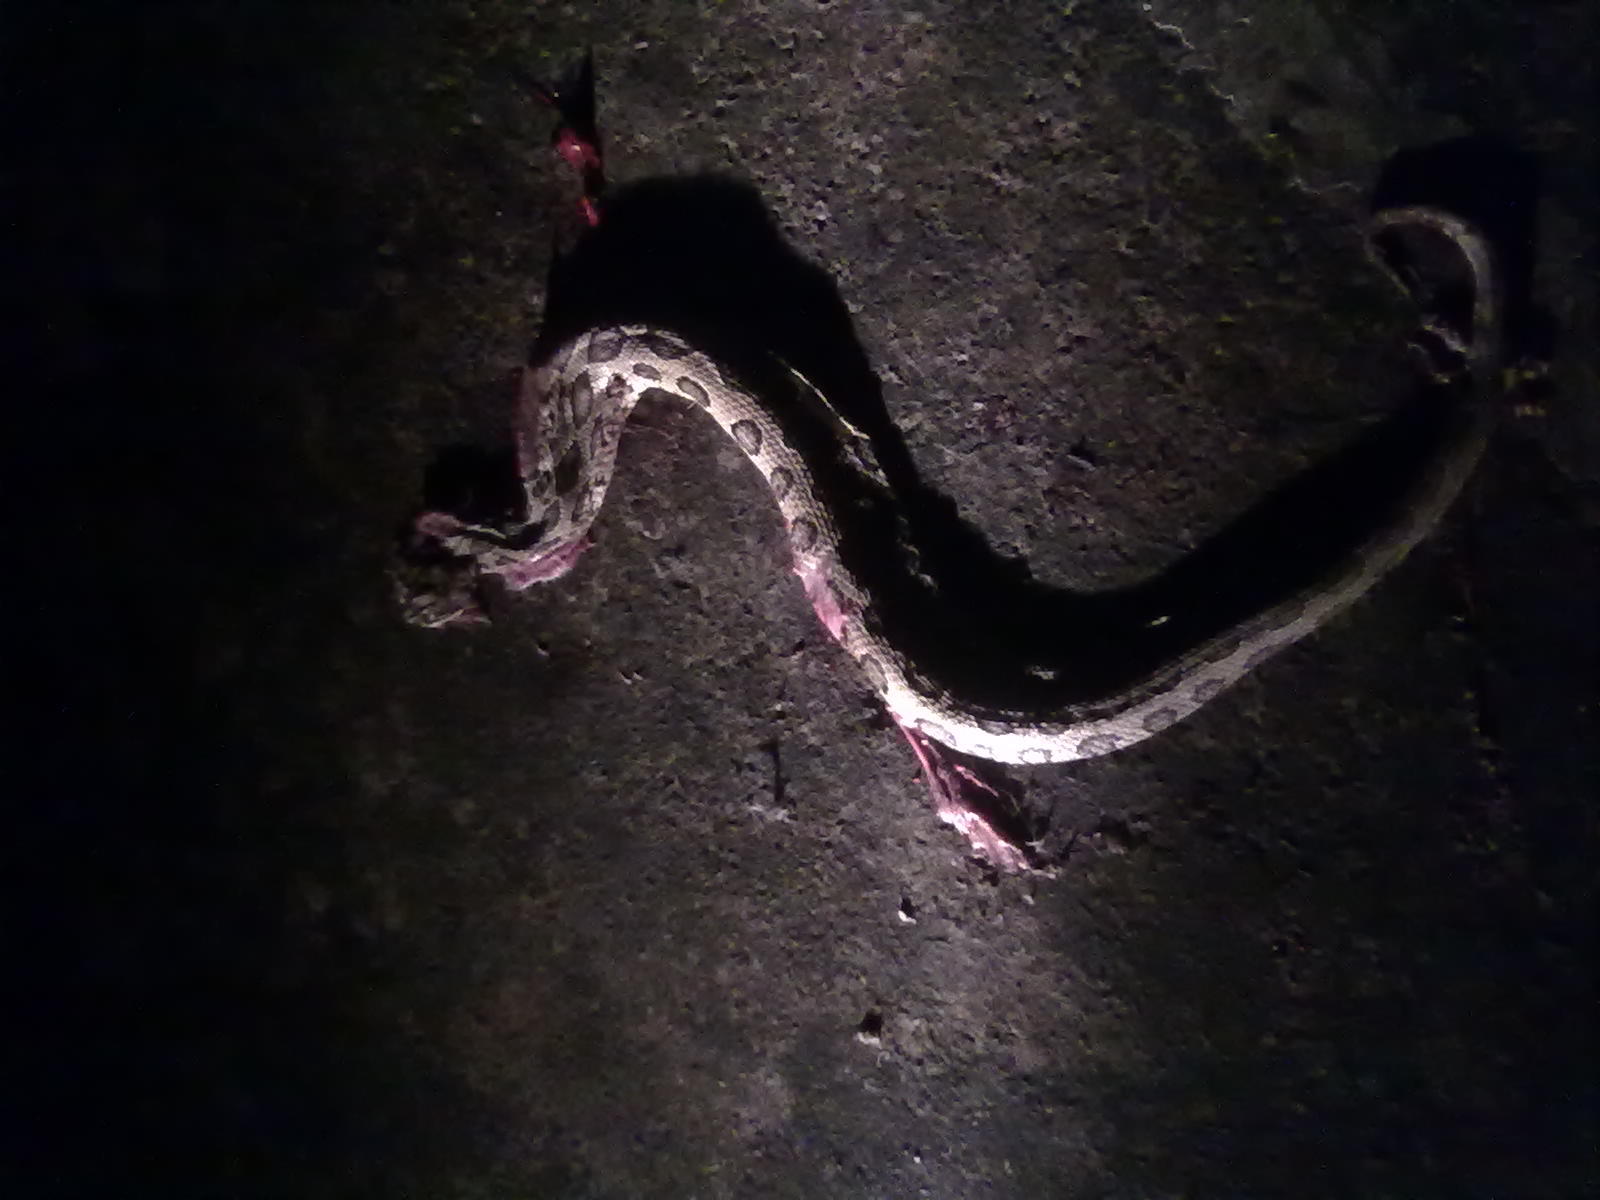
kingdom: Animalia
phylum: Chordata
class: Squamata
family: Viperidae
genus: Daboia
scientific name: Daboia russelii
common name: Western russel’s viper
